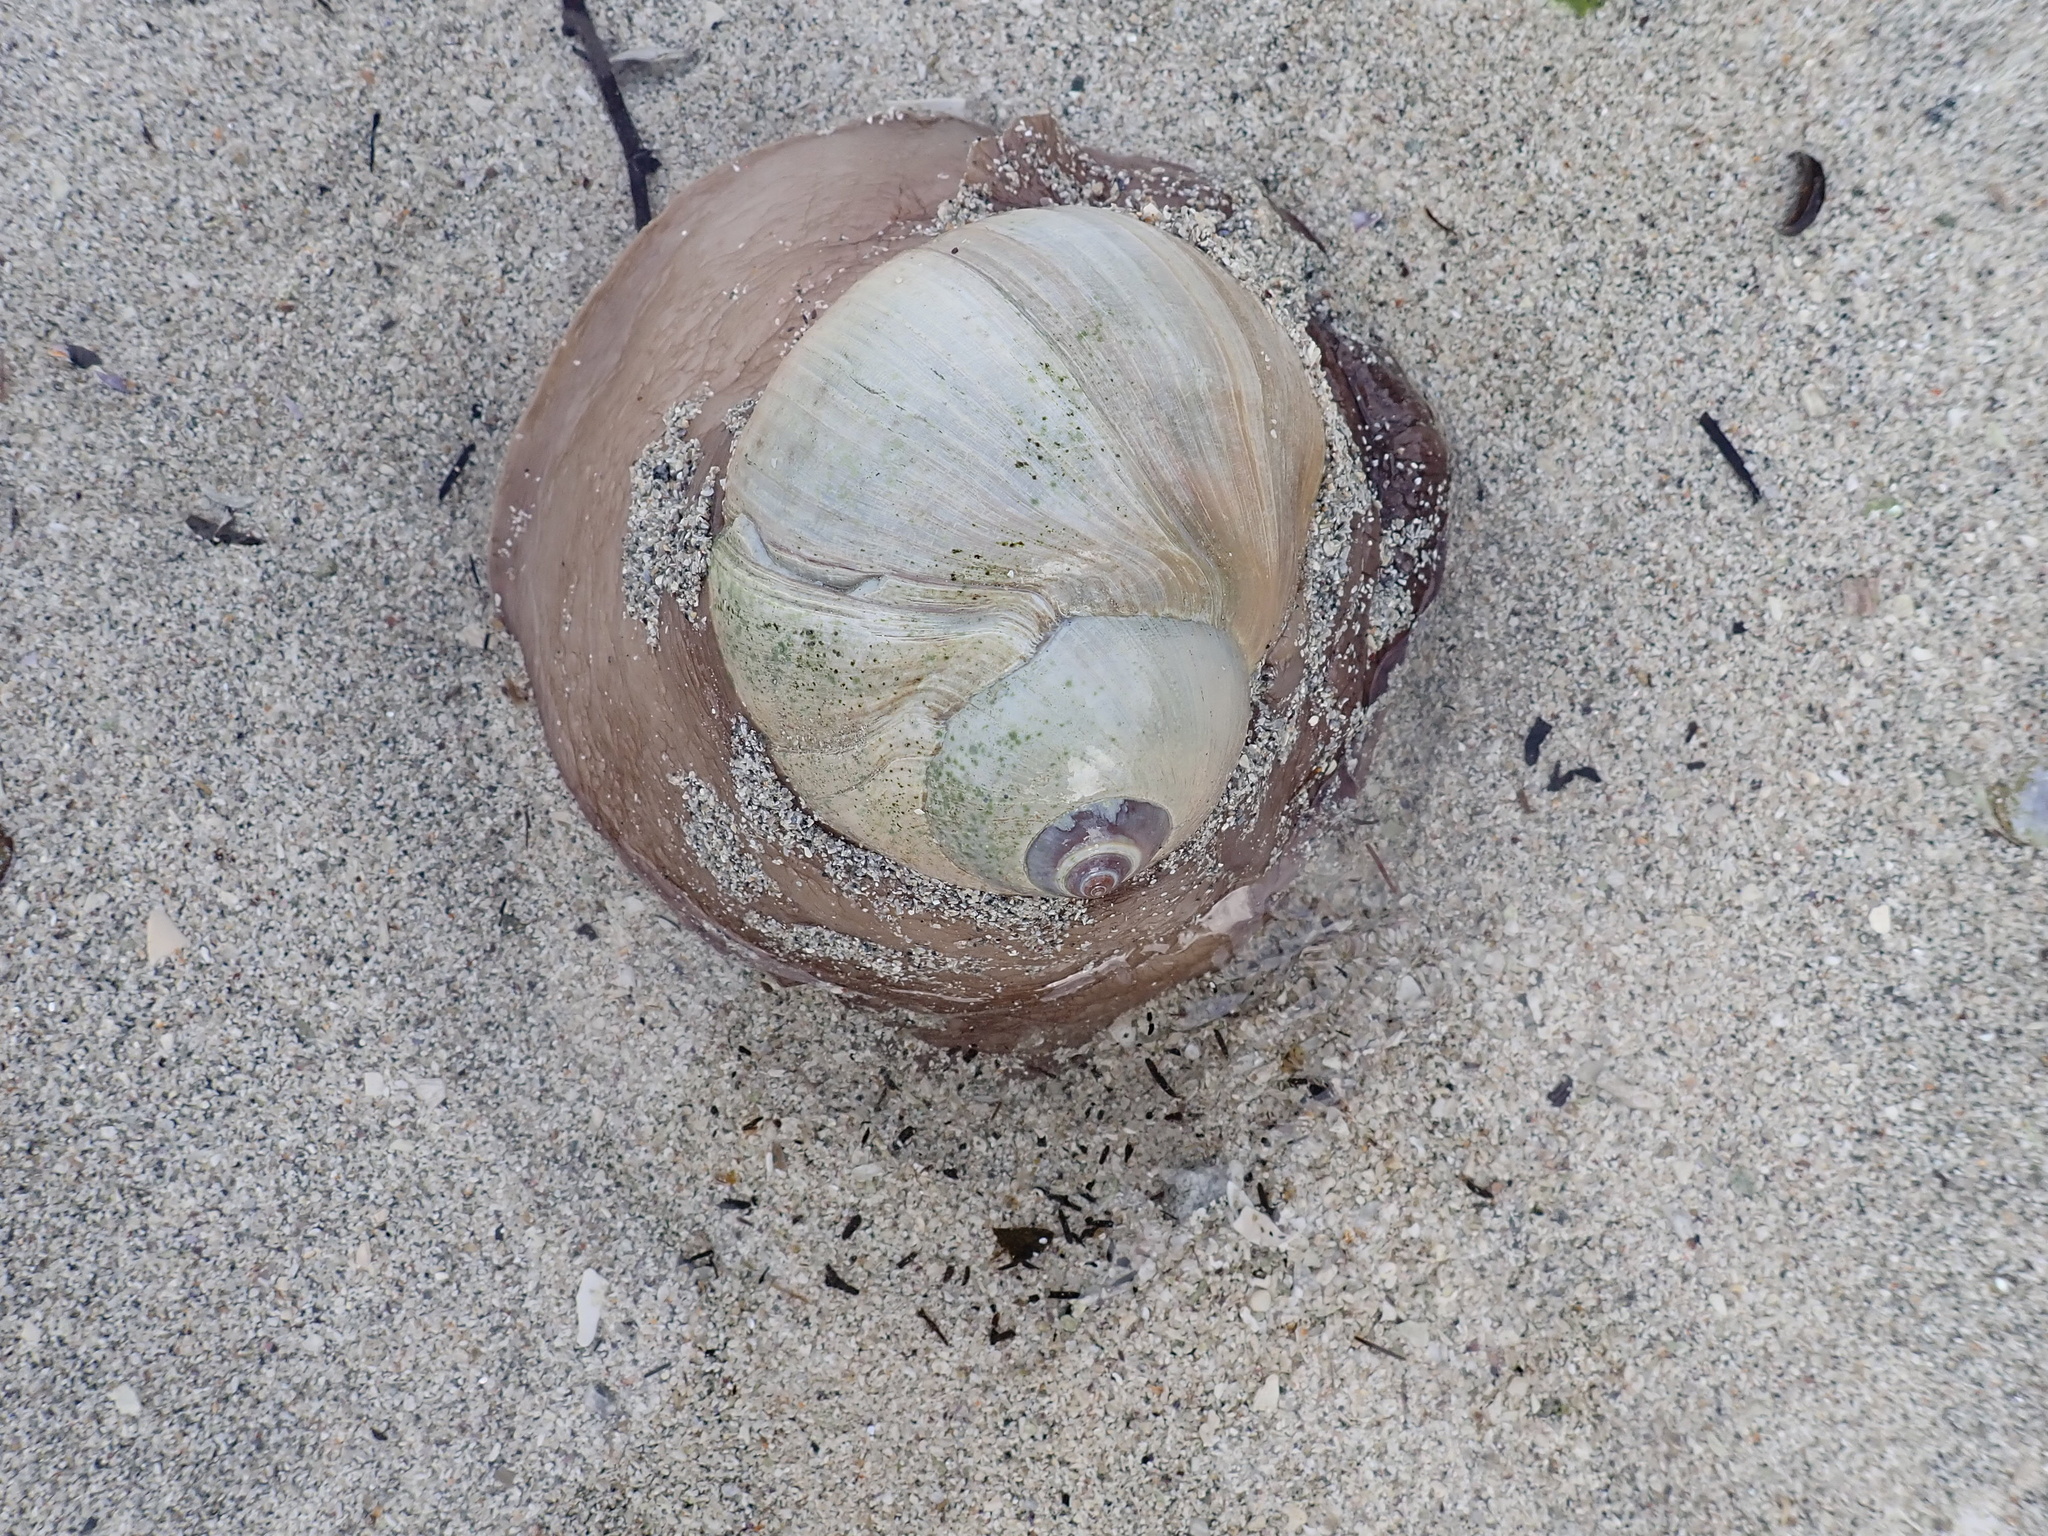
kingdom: Animalia
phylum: Mollusca
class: Gastropoda
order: Littorinimorpha
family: Naticidae
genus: Neverita
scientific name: Neverita lewisii
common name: Lewis' moonsnail
